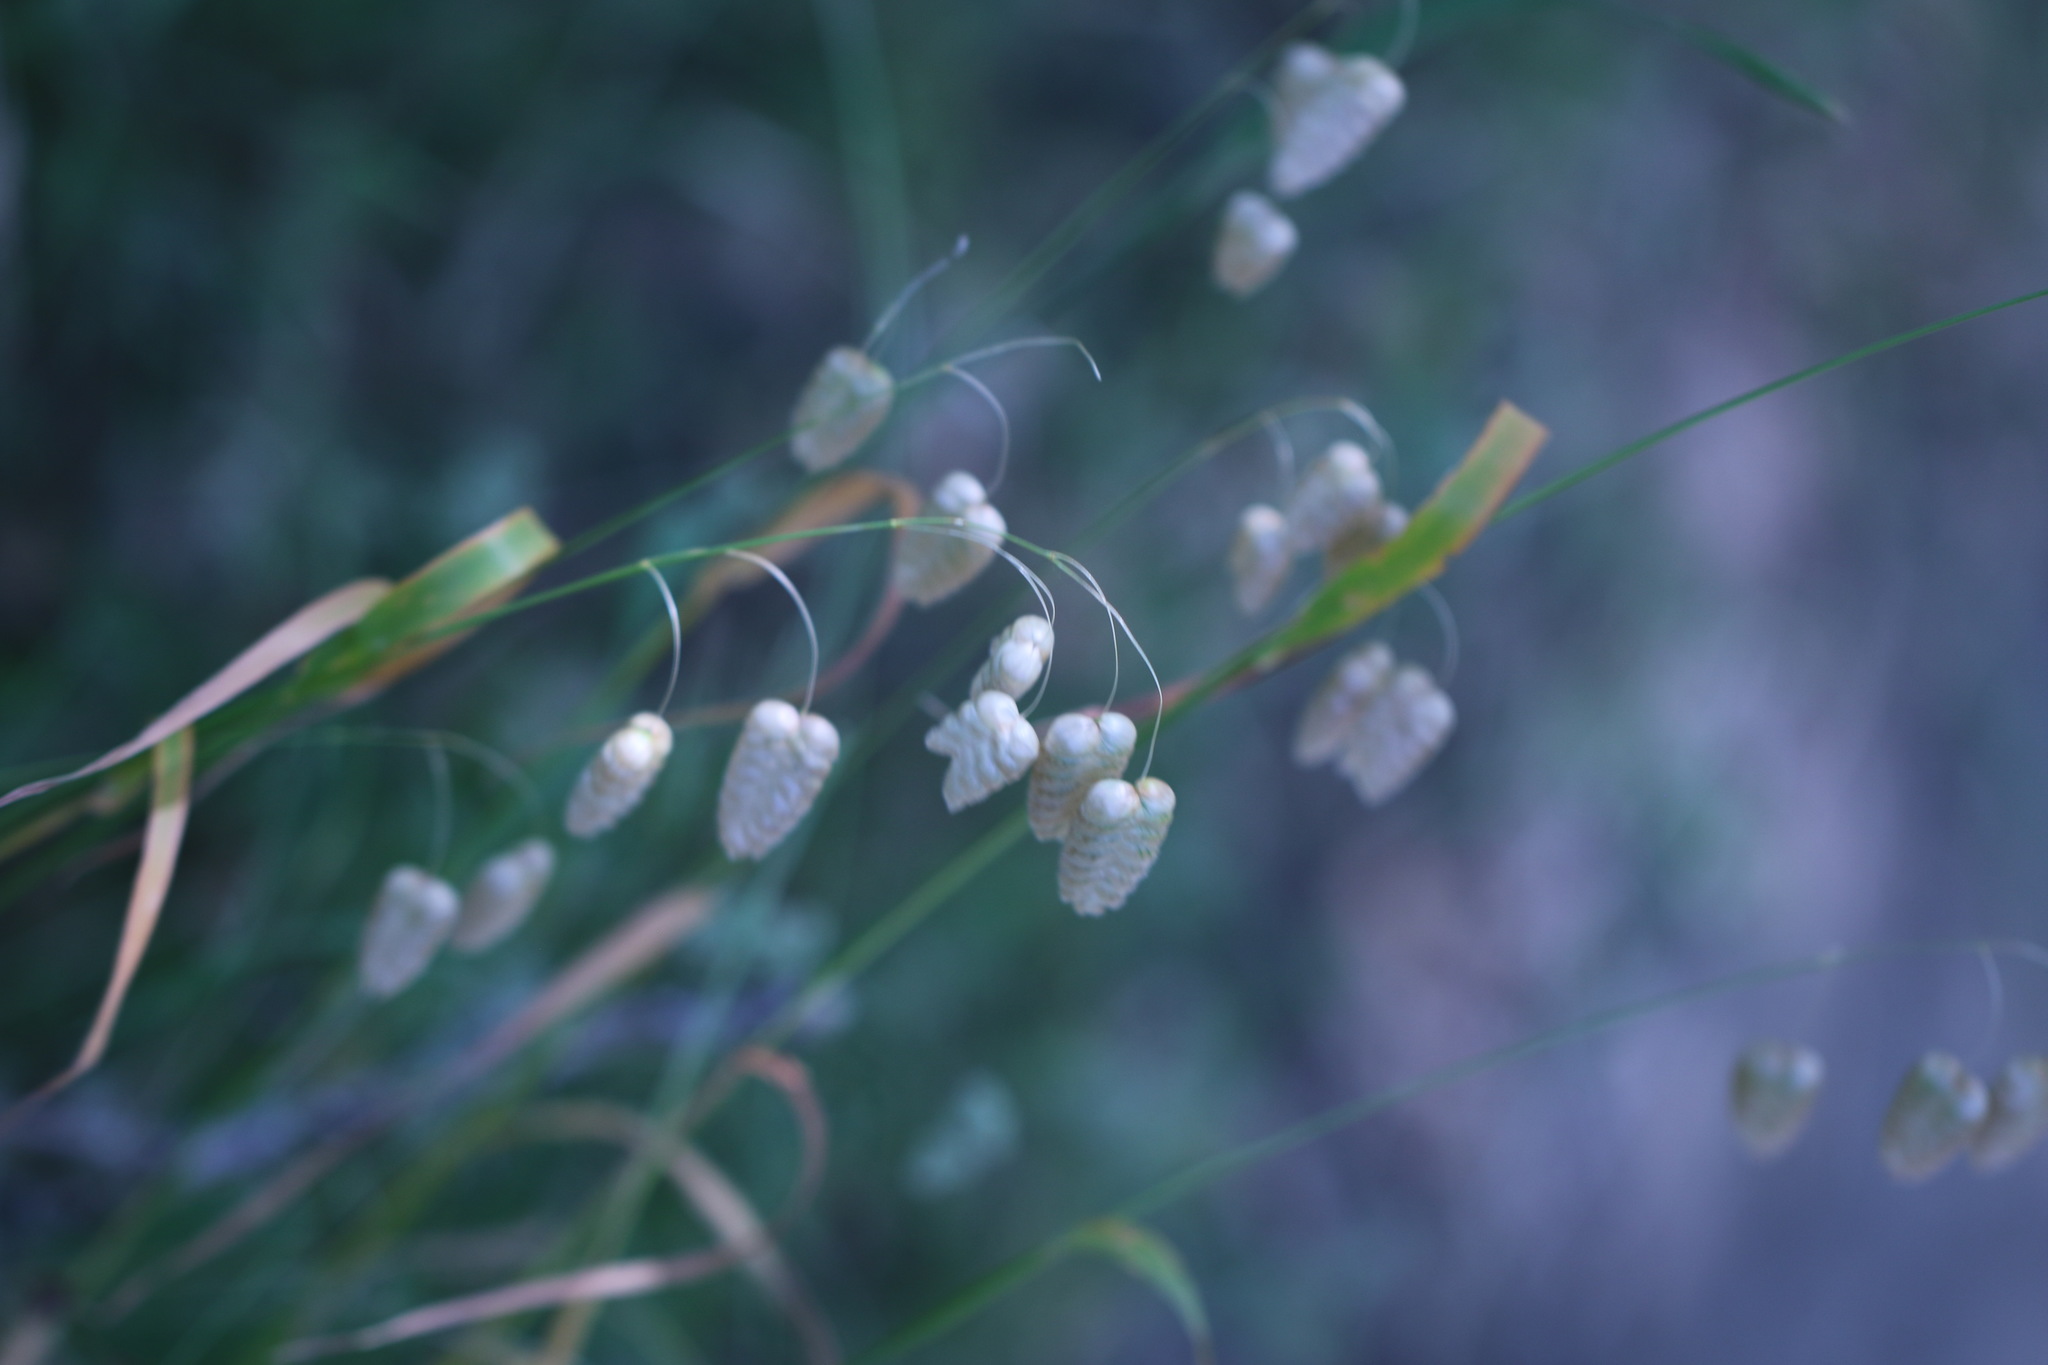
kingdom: Plantae
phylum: Tracheophyta
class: Liliopsida
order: Poales
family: Poaceae
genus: Briza
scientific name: Briza maxima
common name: Big quakinggrass
